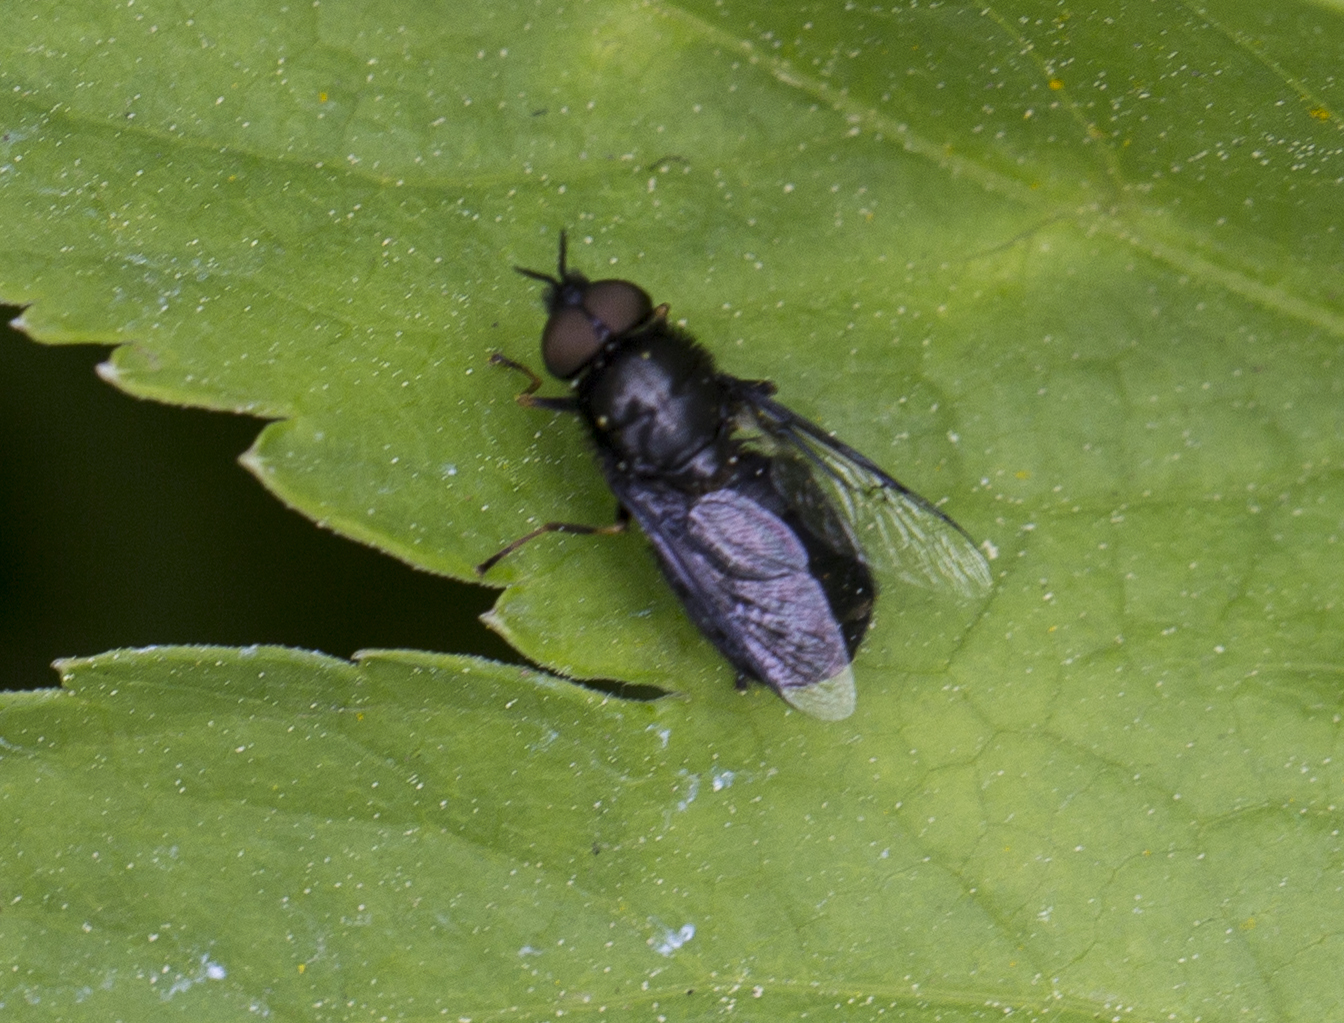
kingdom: Animalia
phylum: Arthropoda
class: Insecta
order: Diptera
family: Stratiomyidae
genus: Odontomyia
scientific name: Odontomyia tigrina
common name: Black colonel
